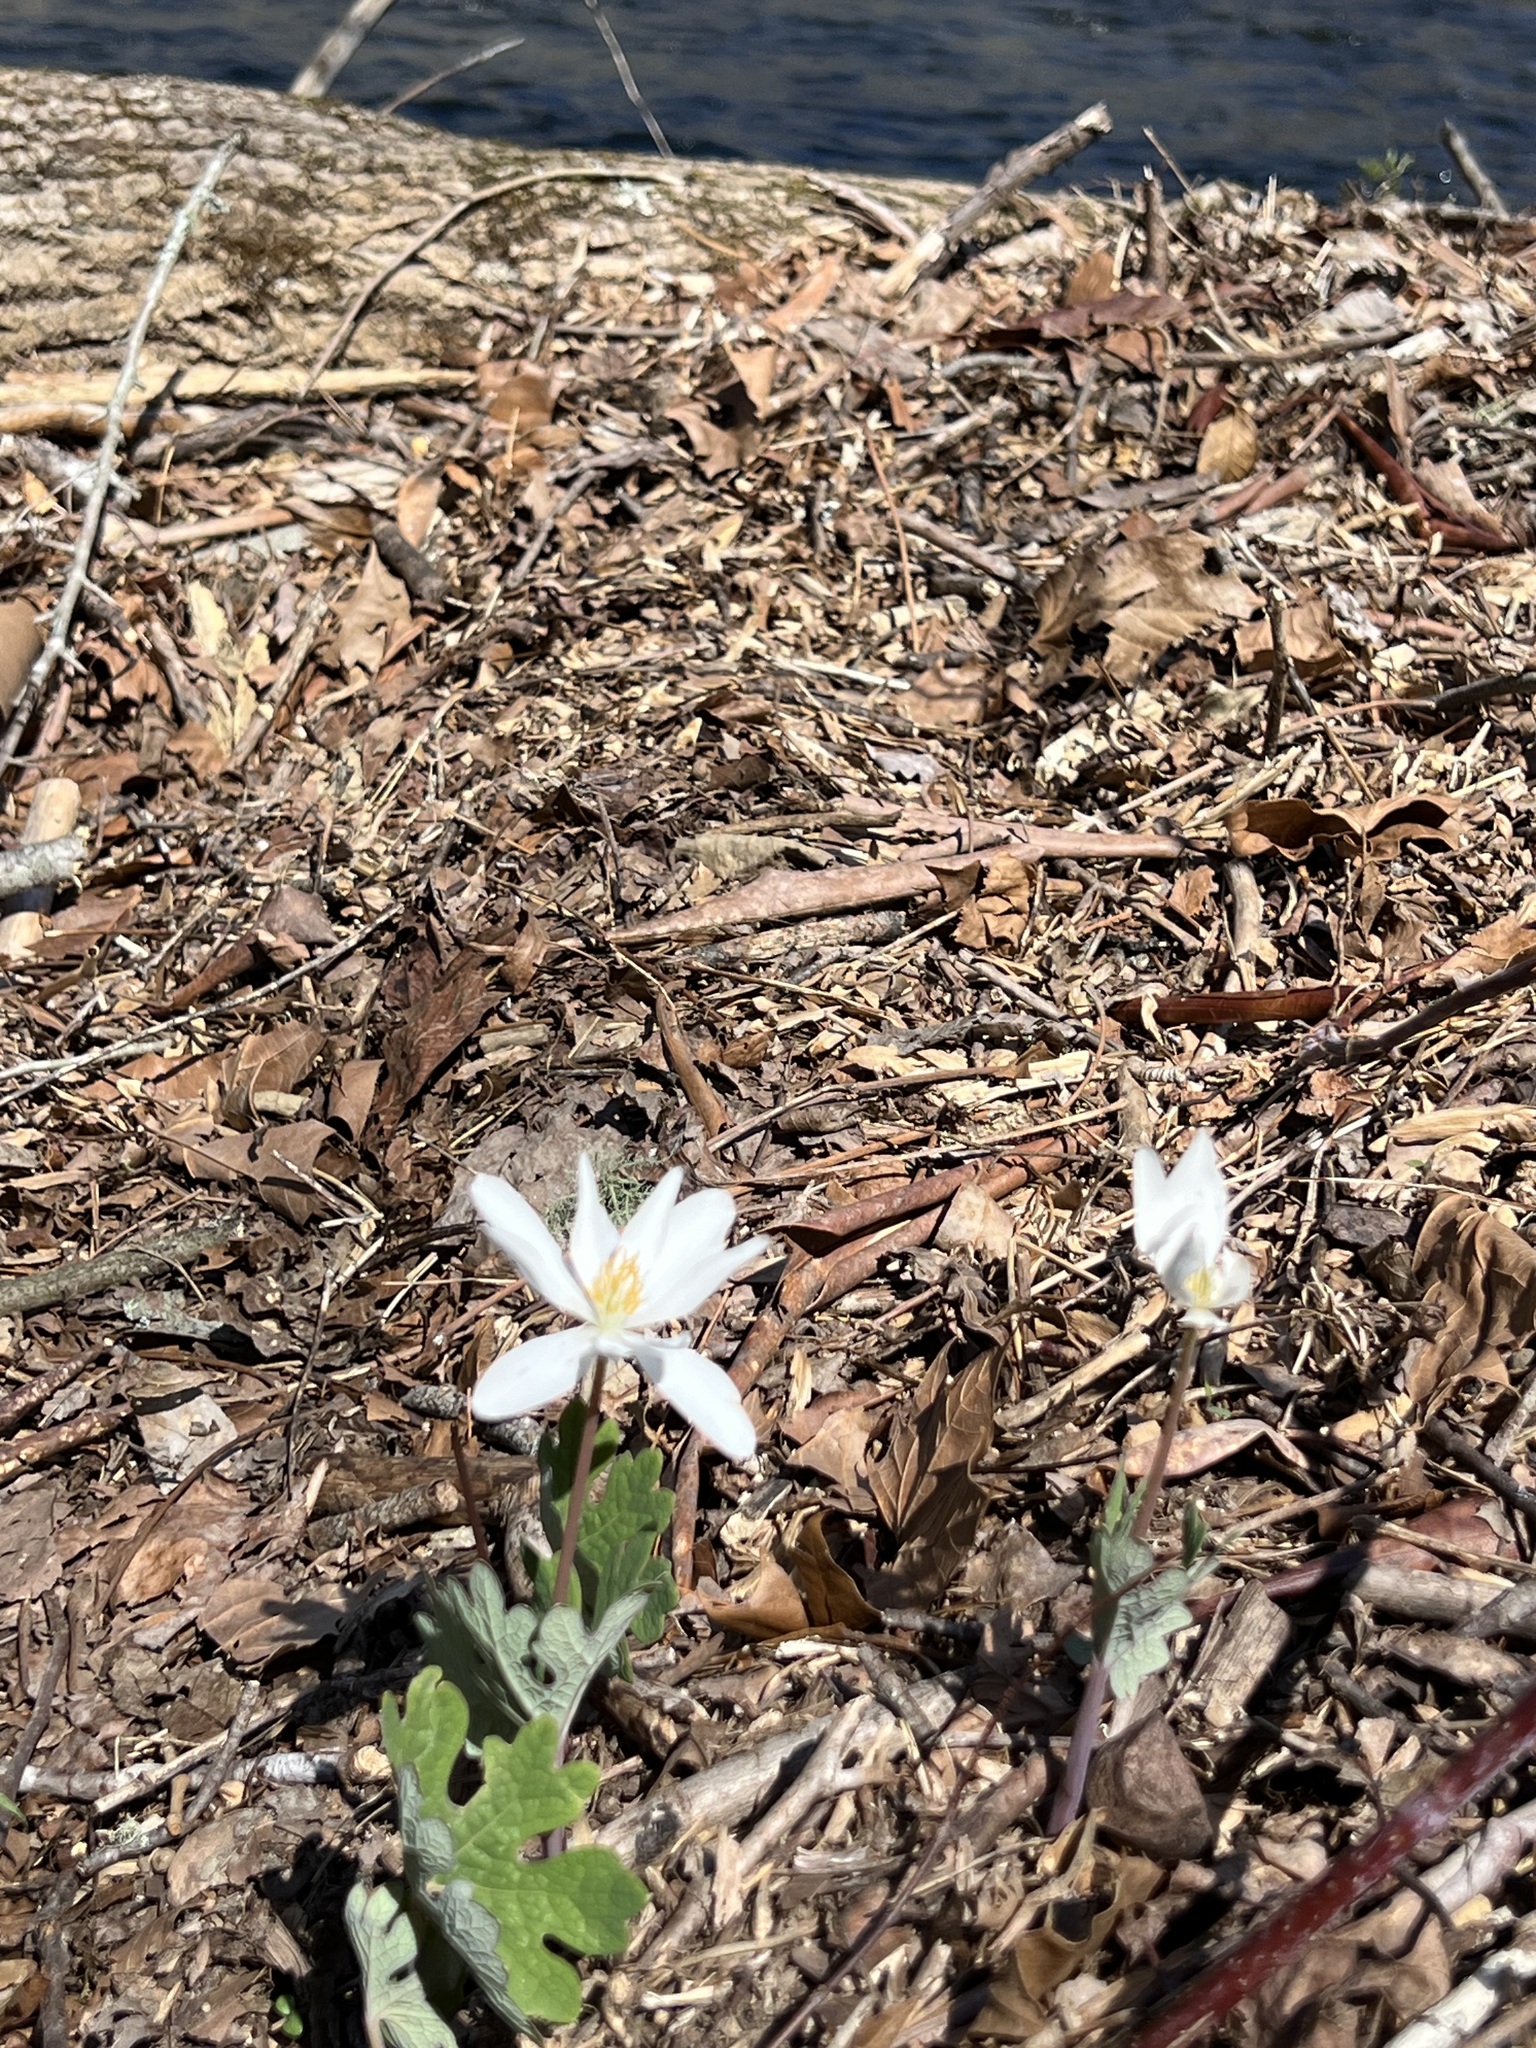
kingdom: Plantae
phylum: Tracheophyta
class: Magnoliopsida
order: Ranunculales
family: Papaveraceae
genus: Sanguinaria
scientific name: Sanguinaria canadensis
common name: Bloodroot
